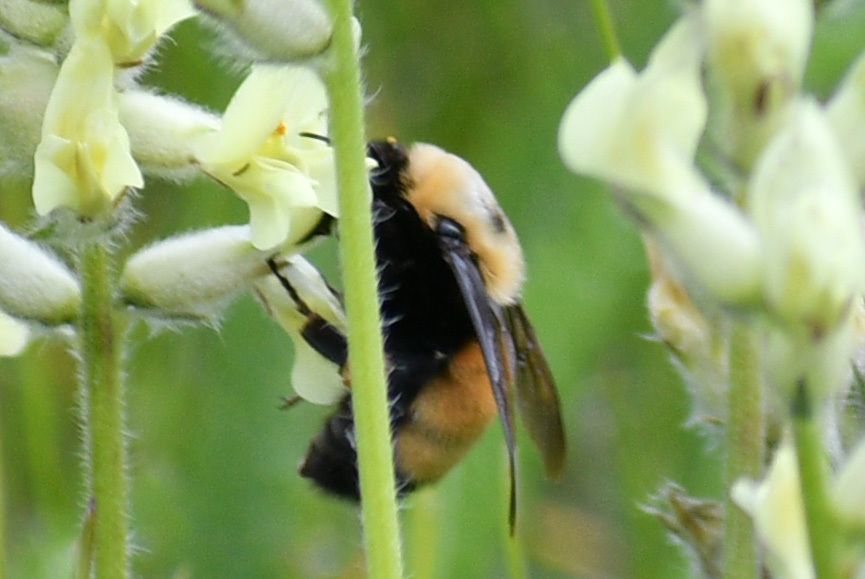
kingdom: Animalia
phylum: Arthropoda
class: Insecta
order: Hymenoptera
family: Apidae
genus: Bombus
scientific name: Bombus nevadensis
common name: Nevada bumble bee
